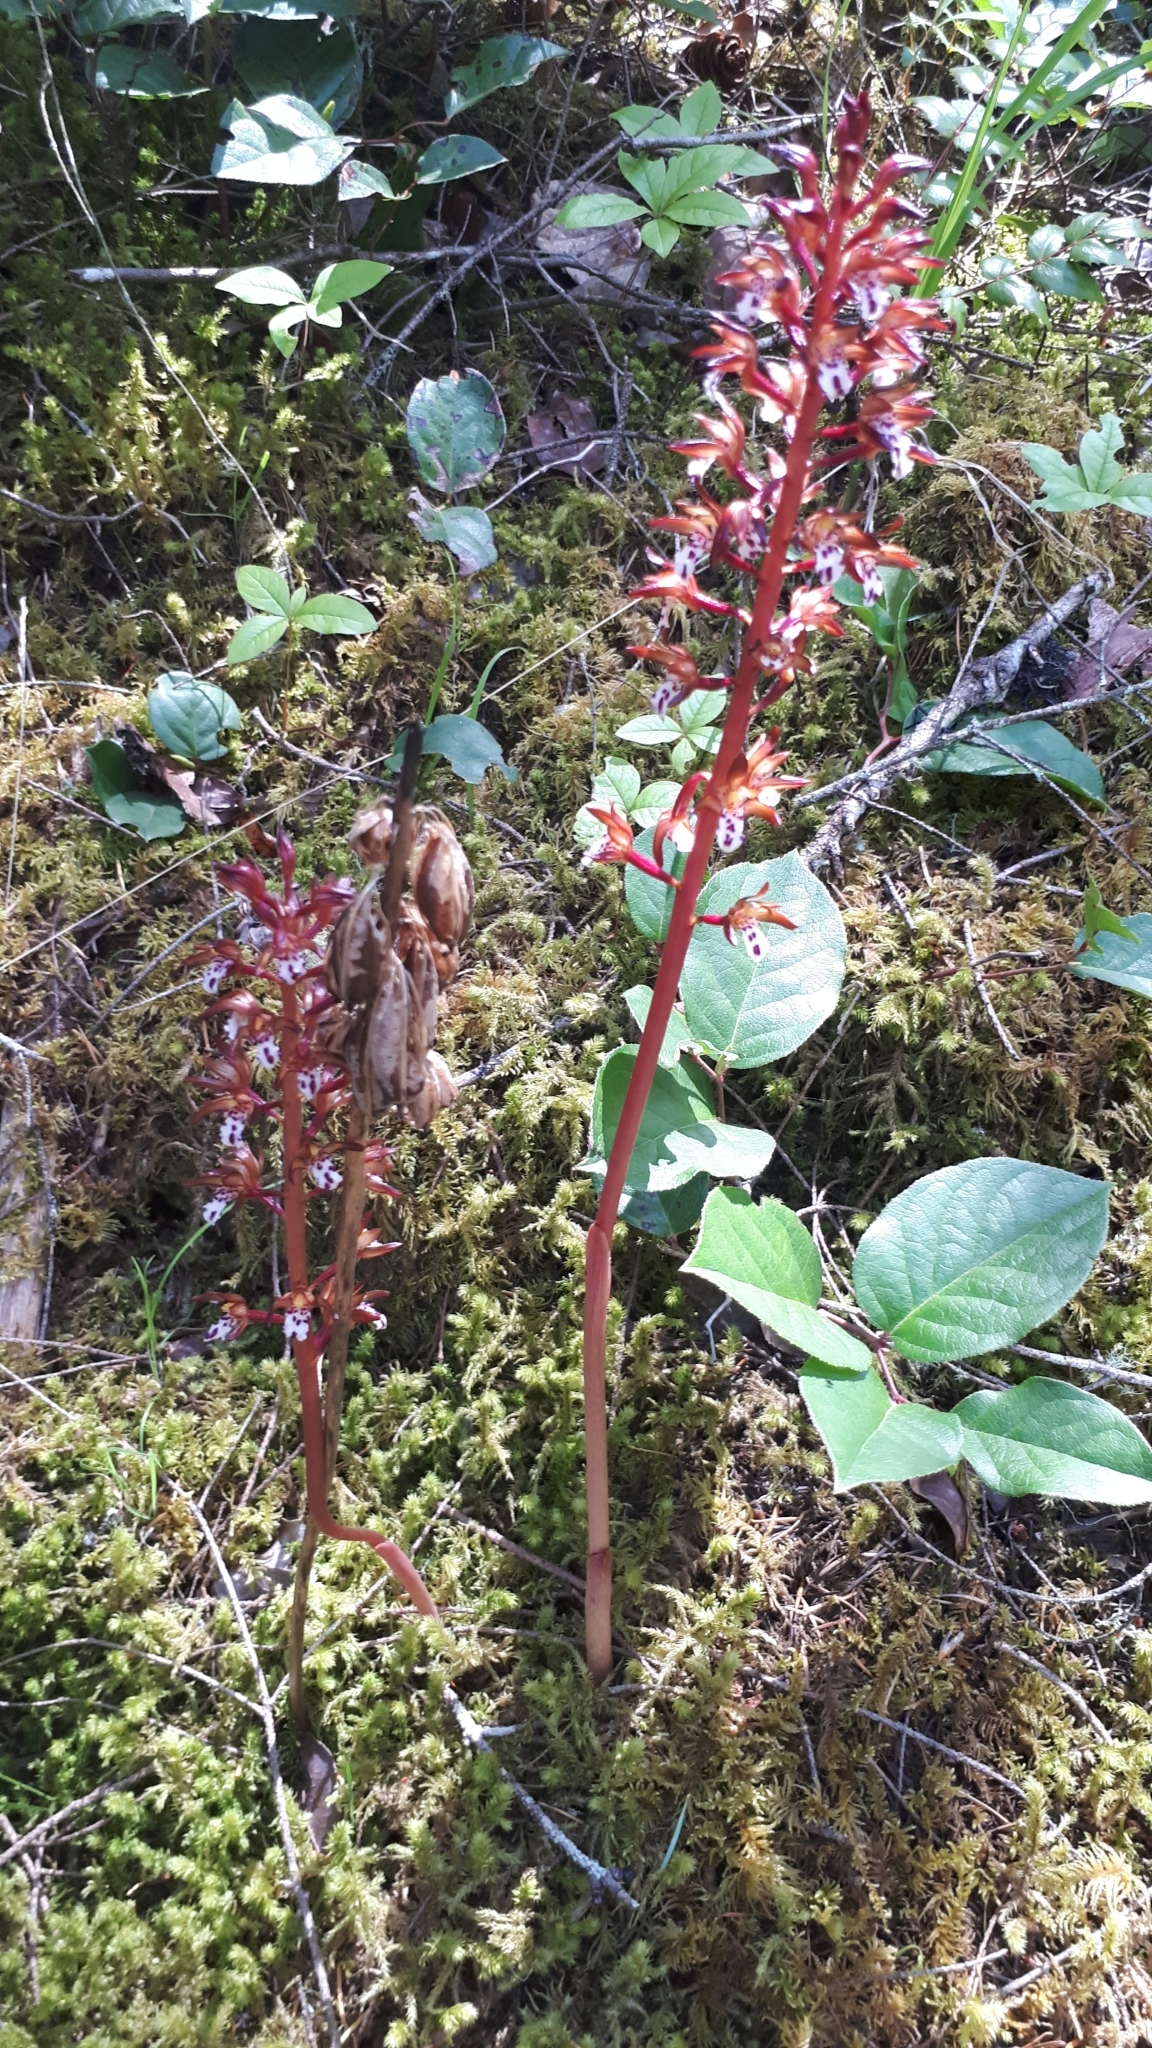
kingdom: Plantae
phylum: Tracheophyta
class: Liliopsida
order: Asparagales
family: Orchidaceae
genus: Corallorhiza
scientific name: Corallorhiza maculata
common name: Spotted coralroot
